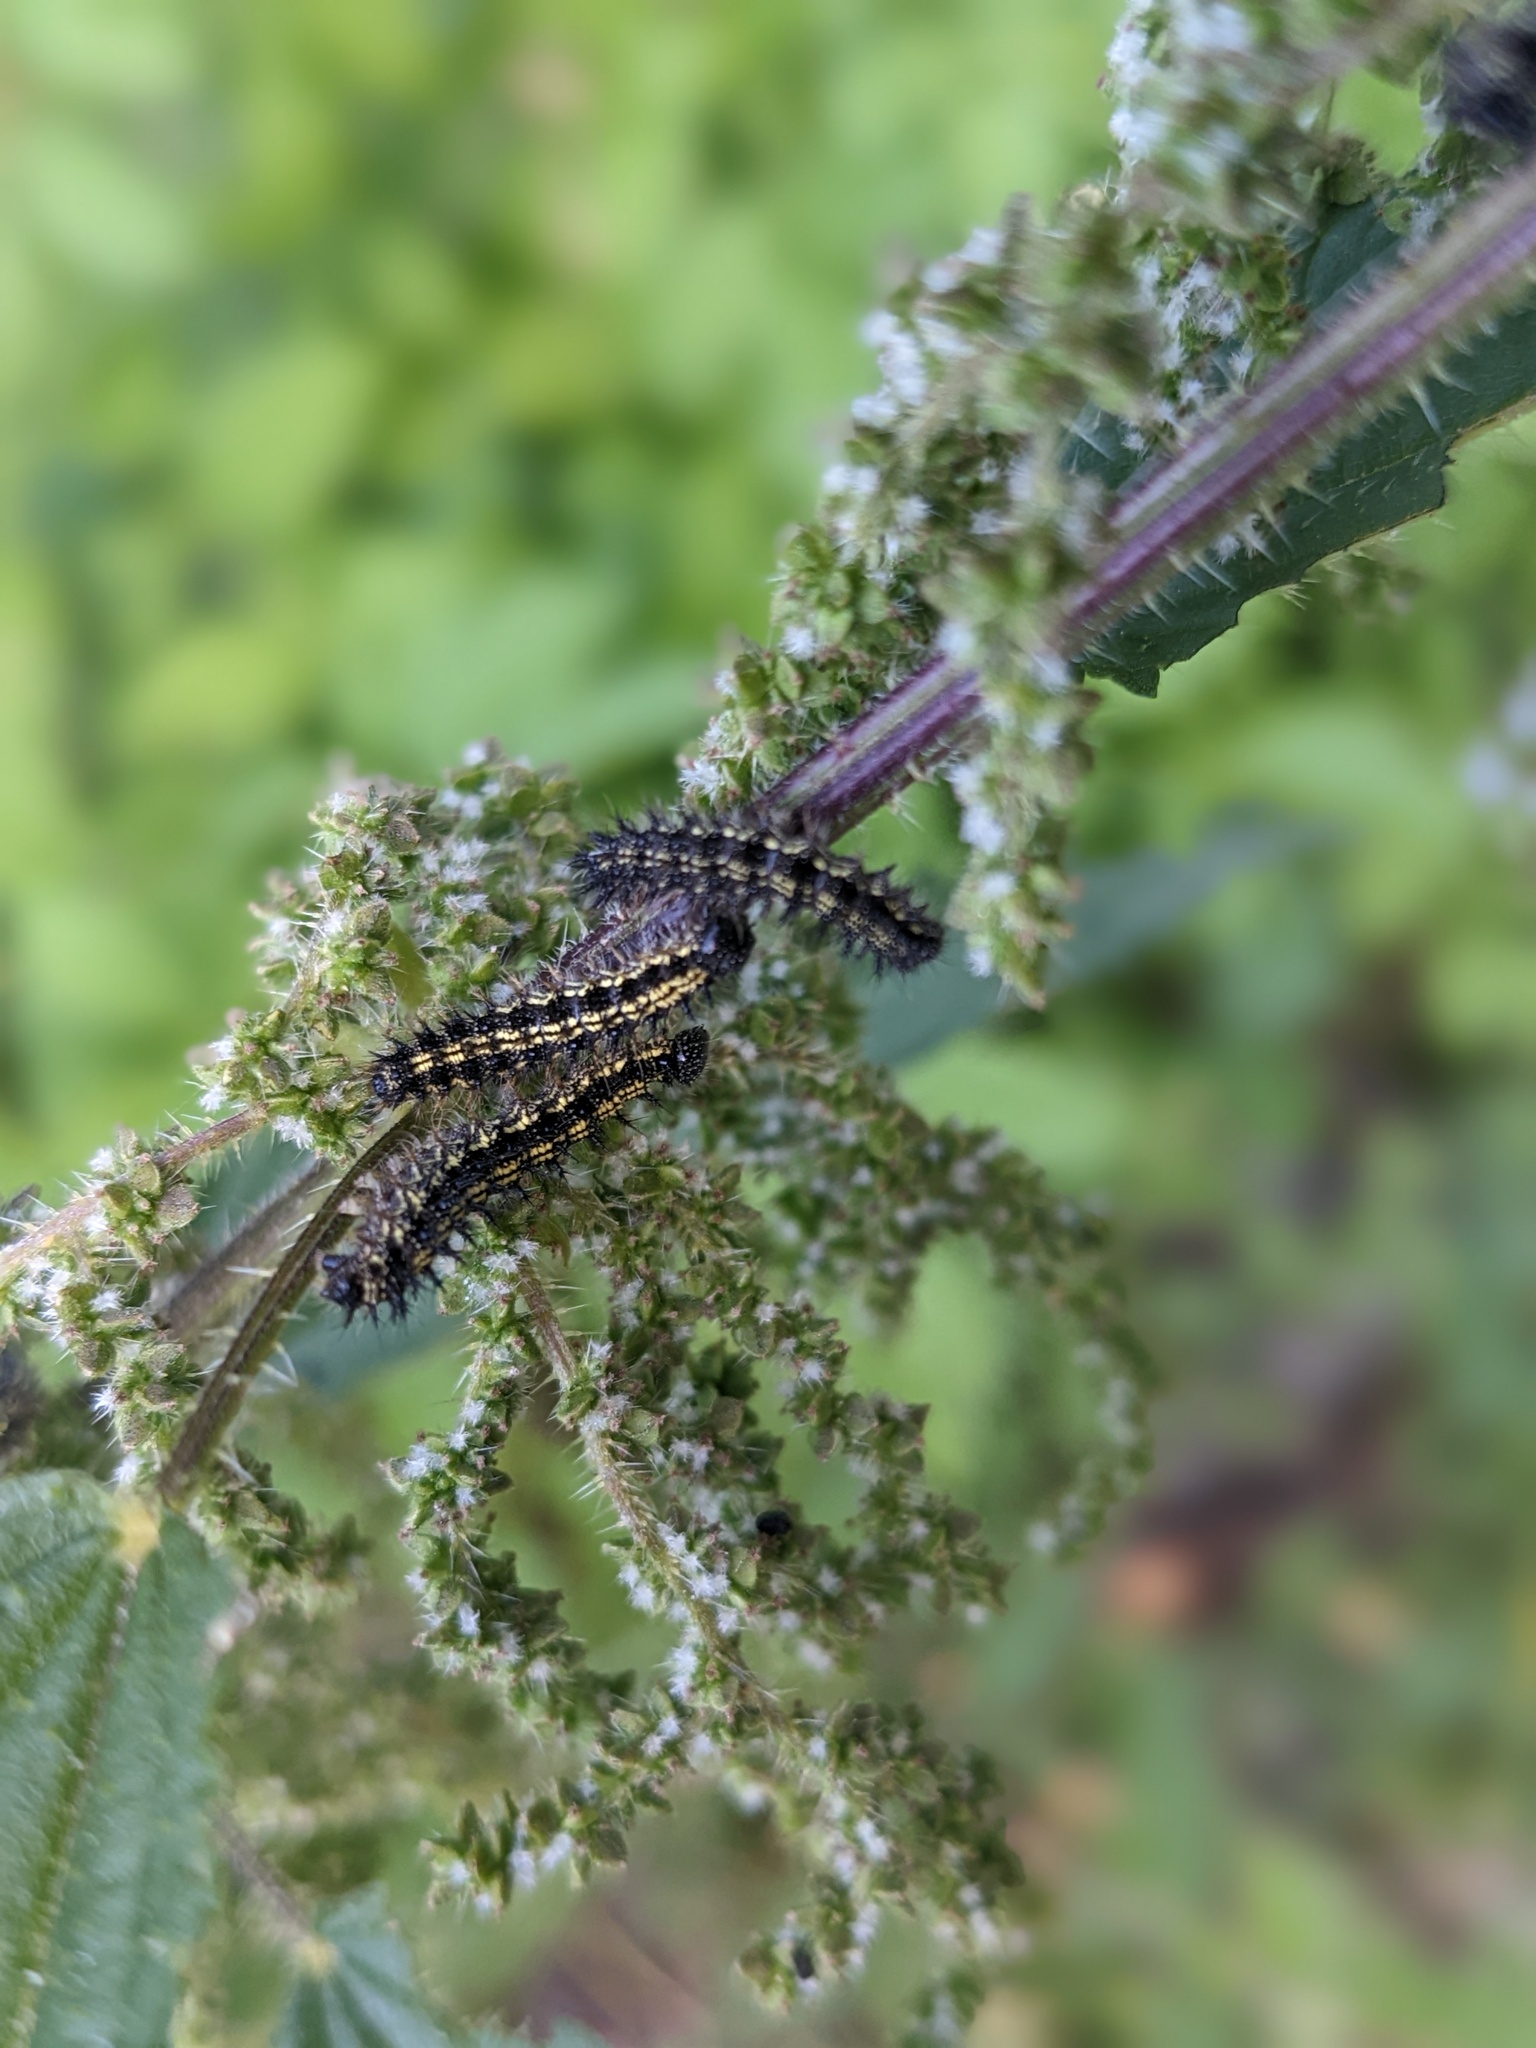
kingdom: Animalia
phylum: Arthropoda
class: Insecta
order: Lepidoptera
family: Nymphalidae
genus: Aglais
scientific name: Aglais urticae
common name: Small tortoiseshell
